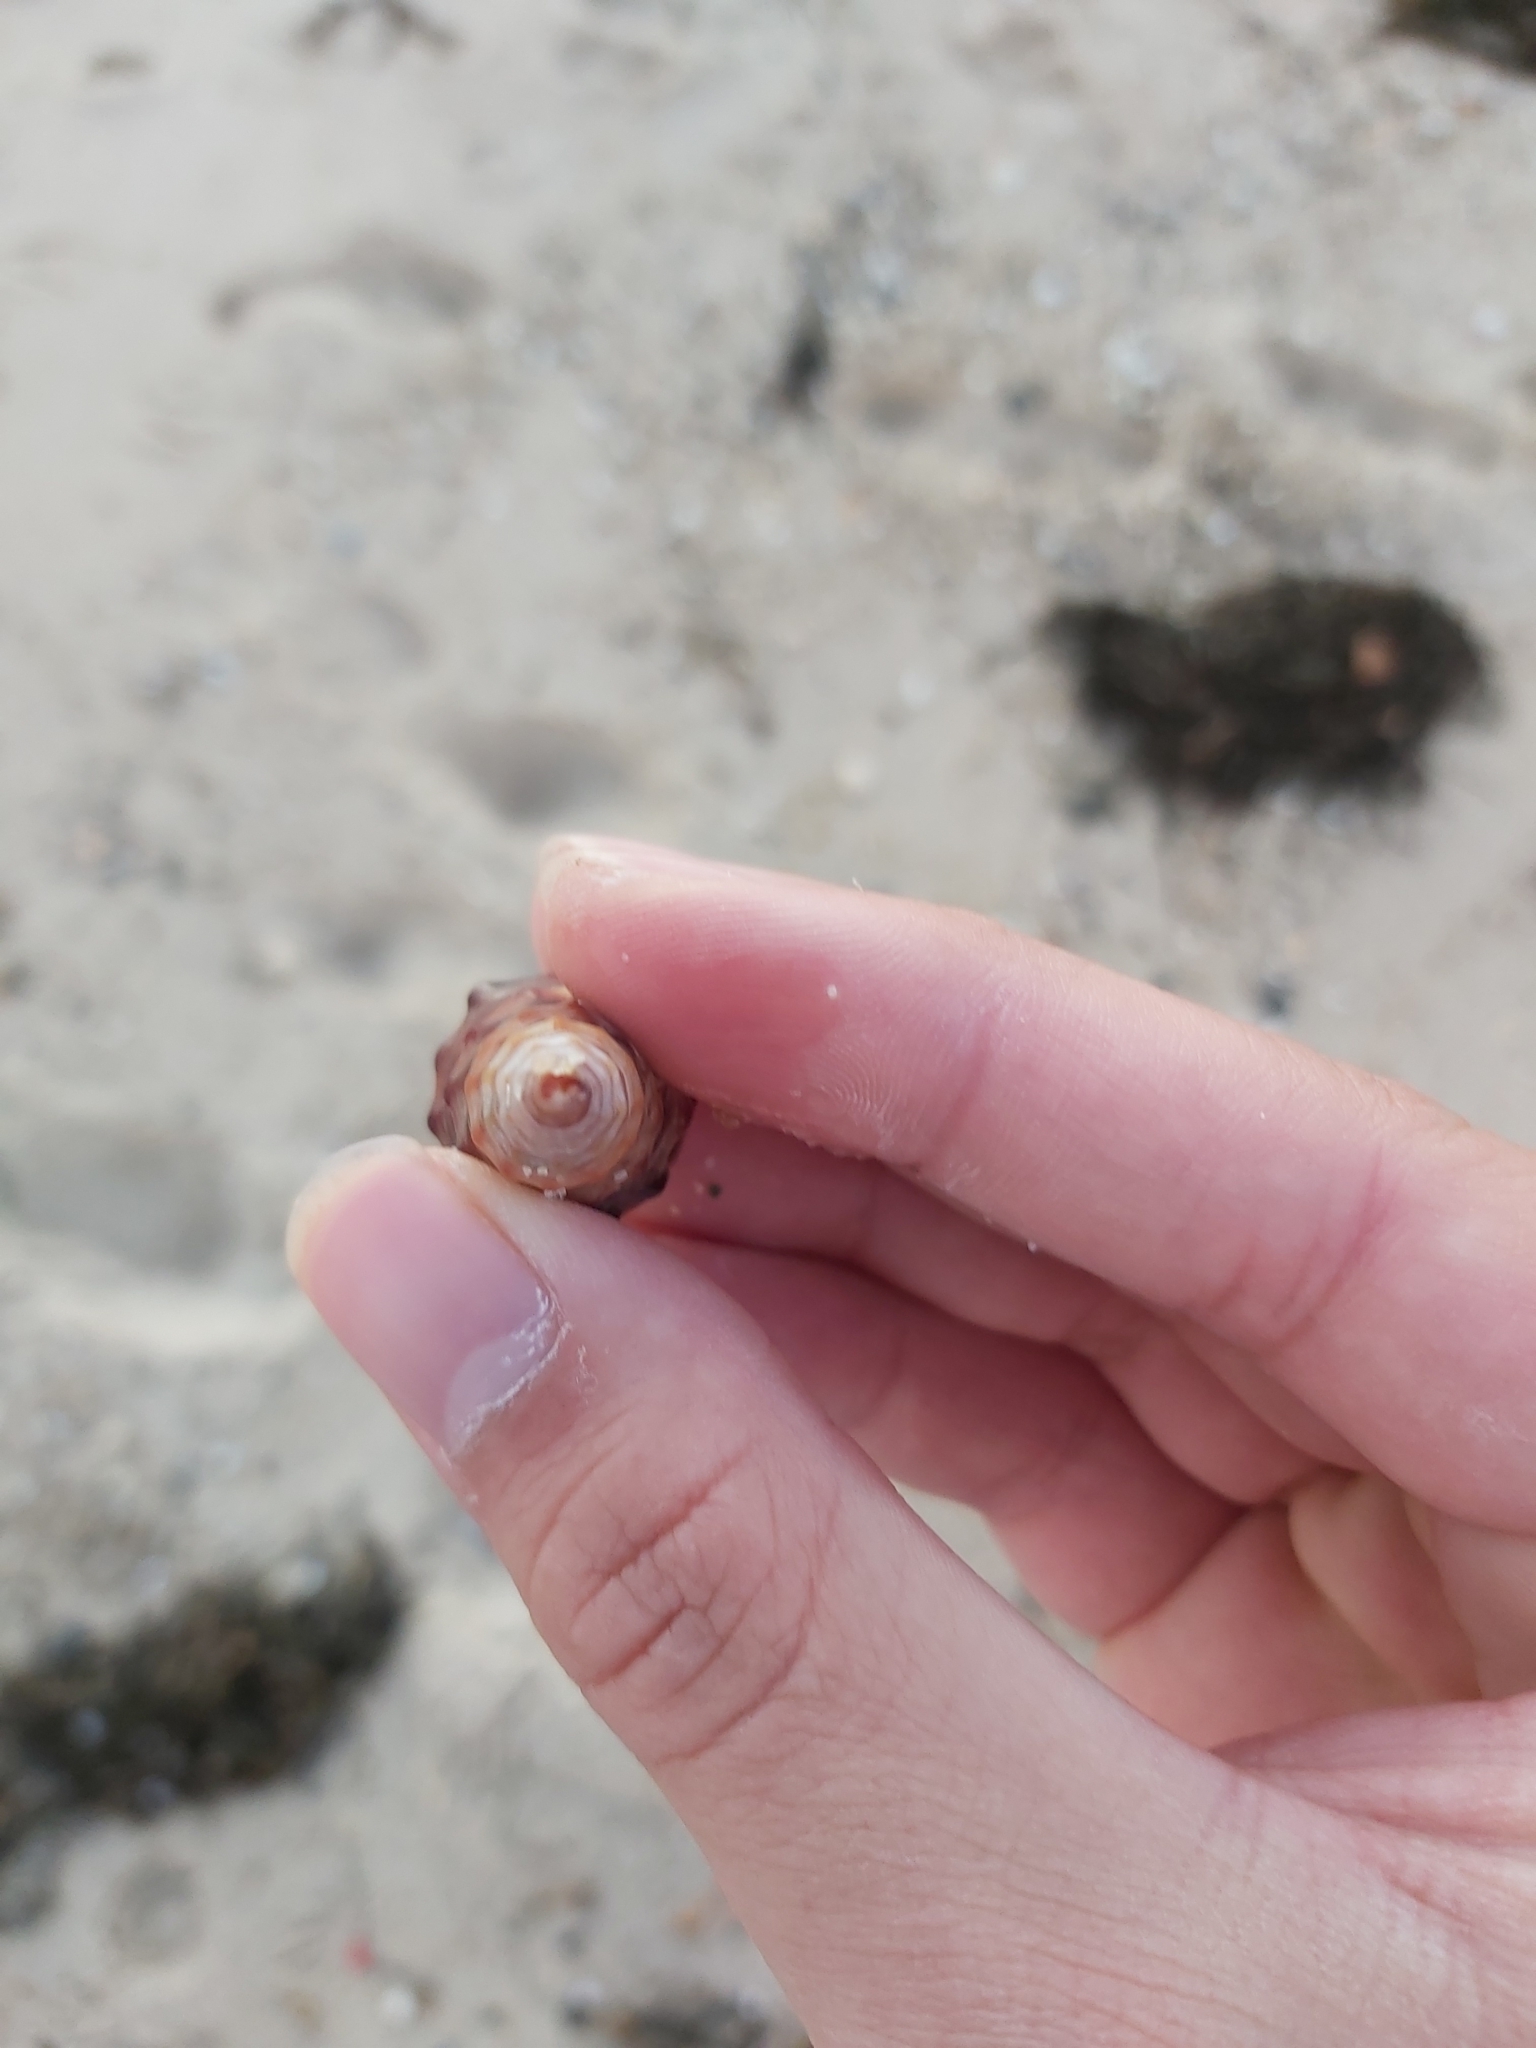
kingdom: Animalia
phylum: Mollusca
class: Gastropoda
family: Batillariidae
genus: Pyrazus
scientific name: Pyrazus ebeninus
